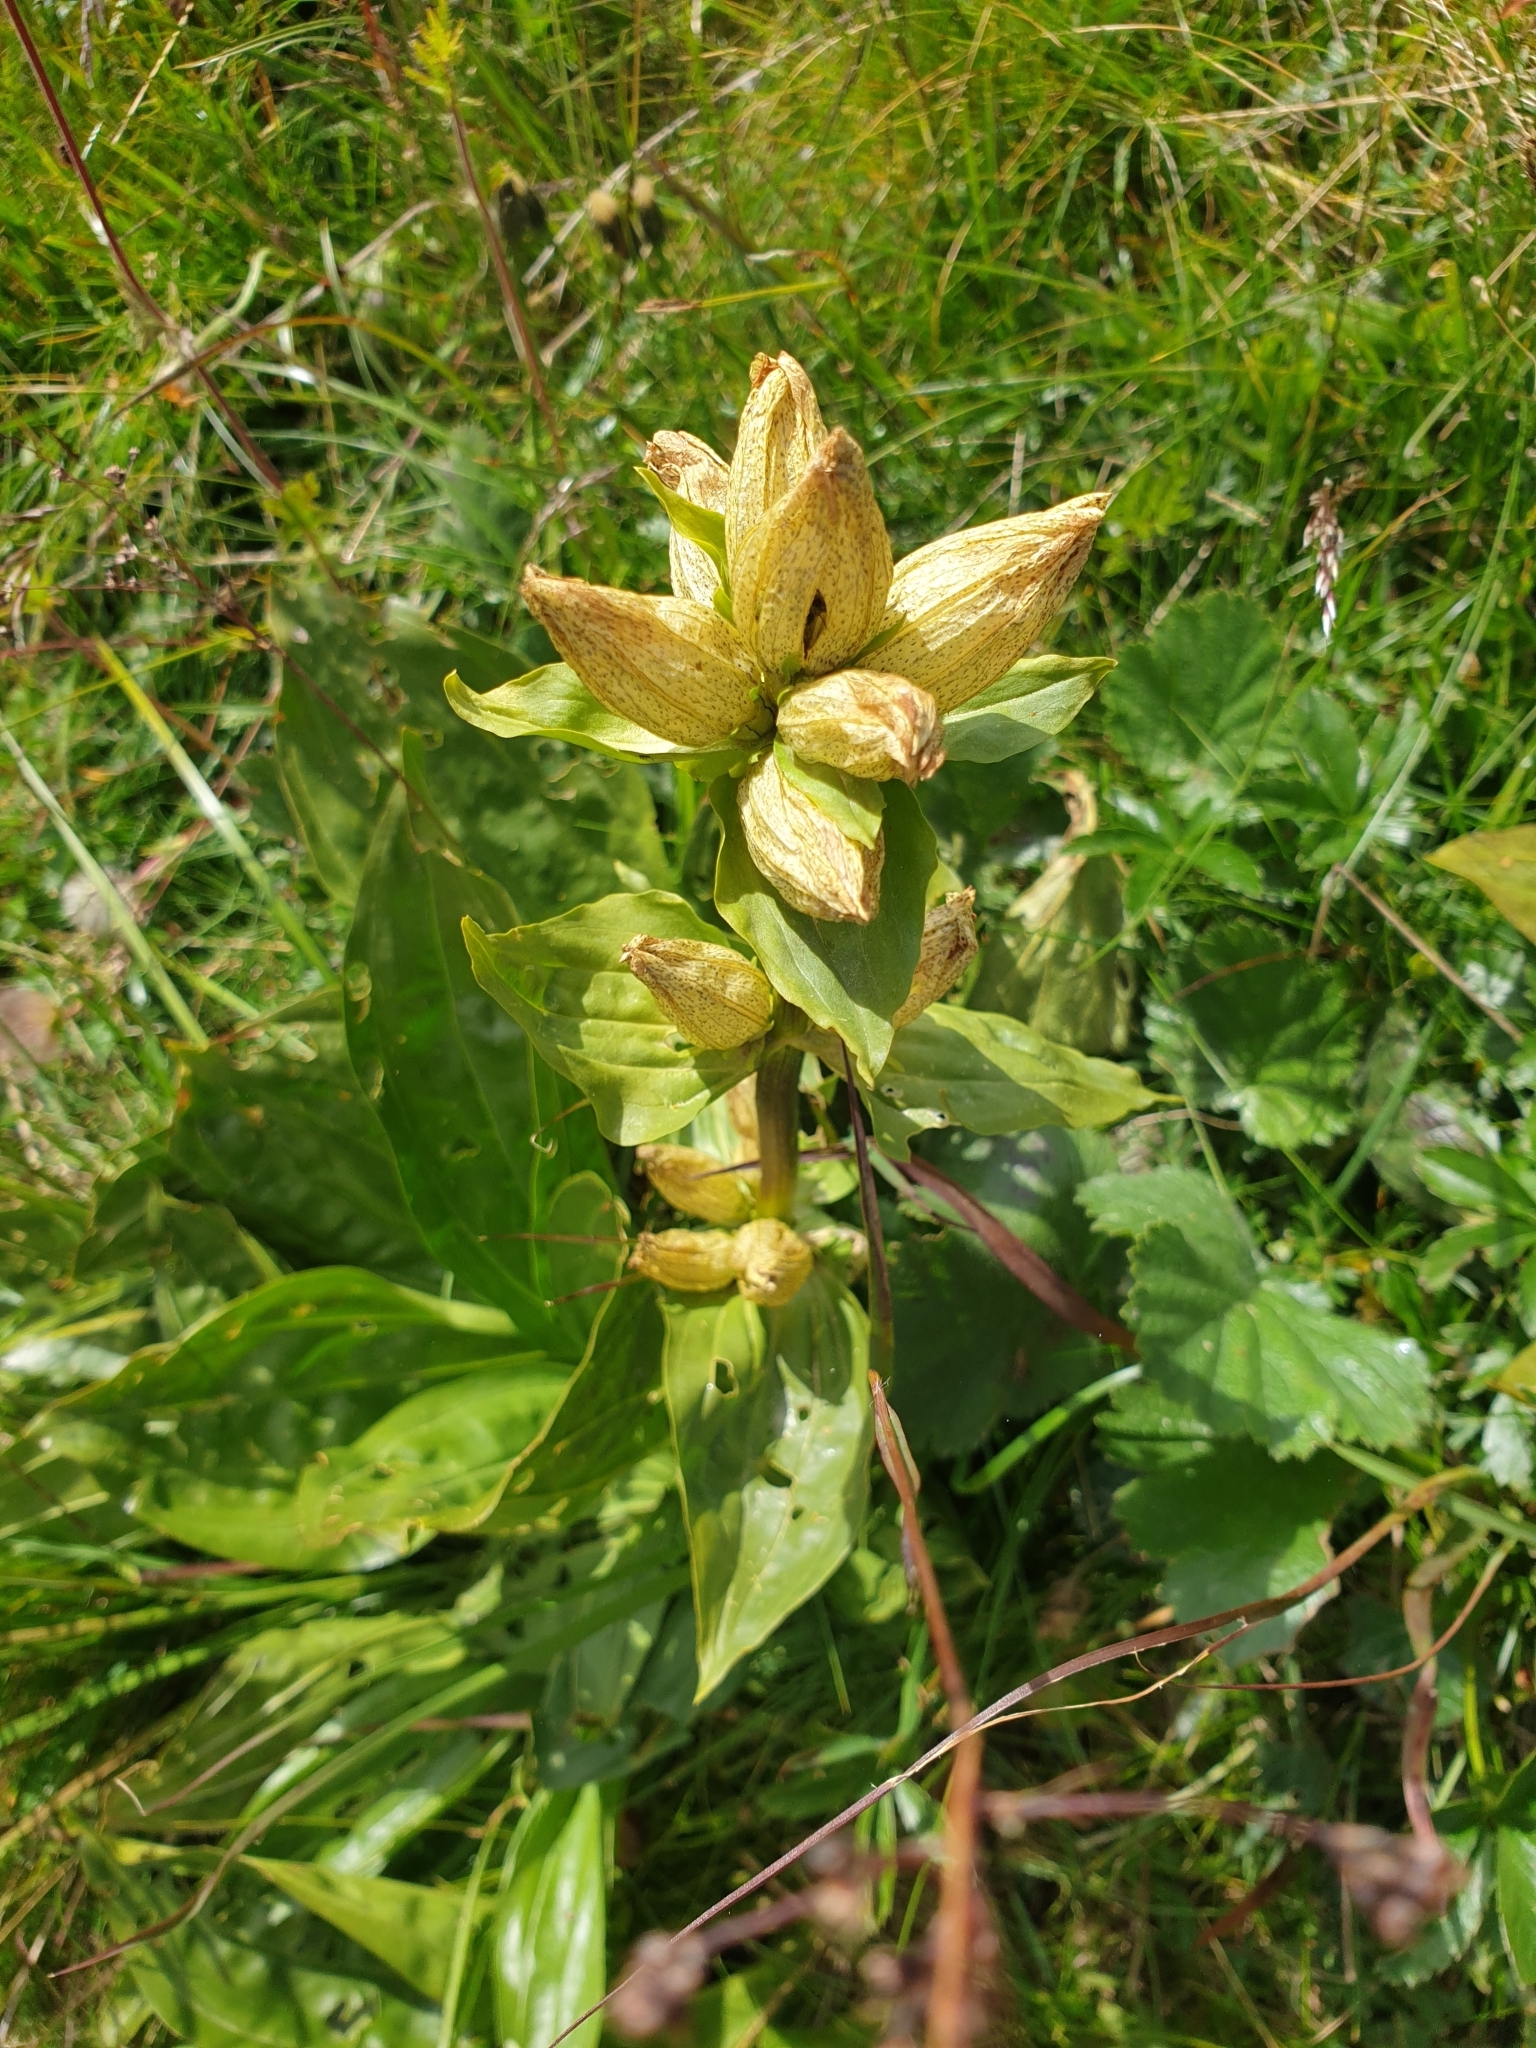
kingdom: Plantae
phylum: Tracheophyta
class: Magnoliopsida
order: Gentianales
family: Gentianaceae
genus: Gentiana
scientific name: Gentiana punctata
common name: Spotted gentian
